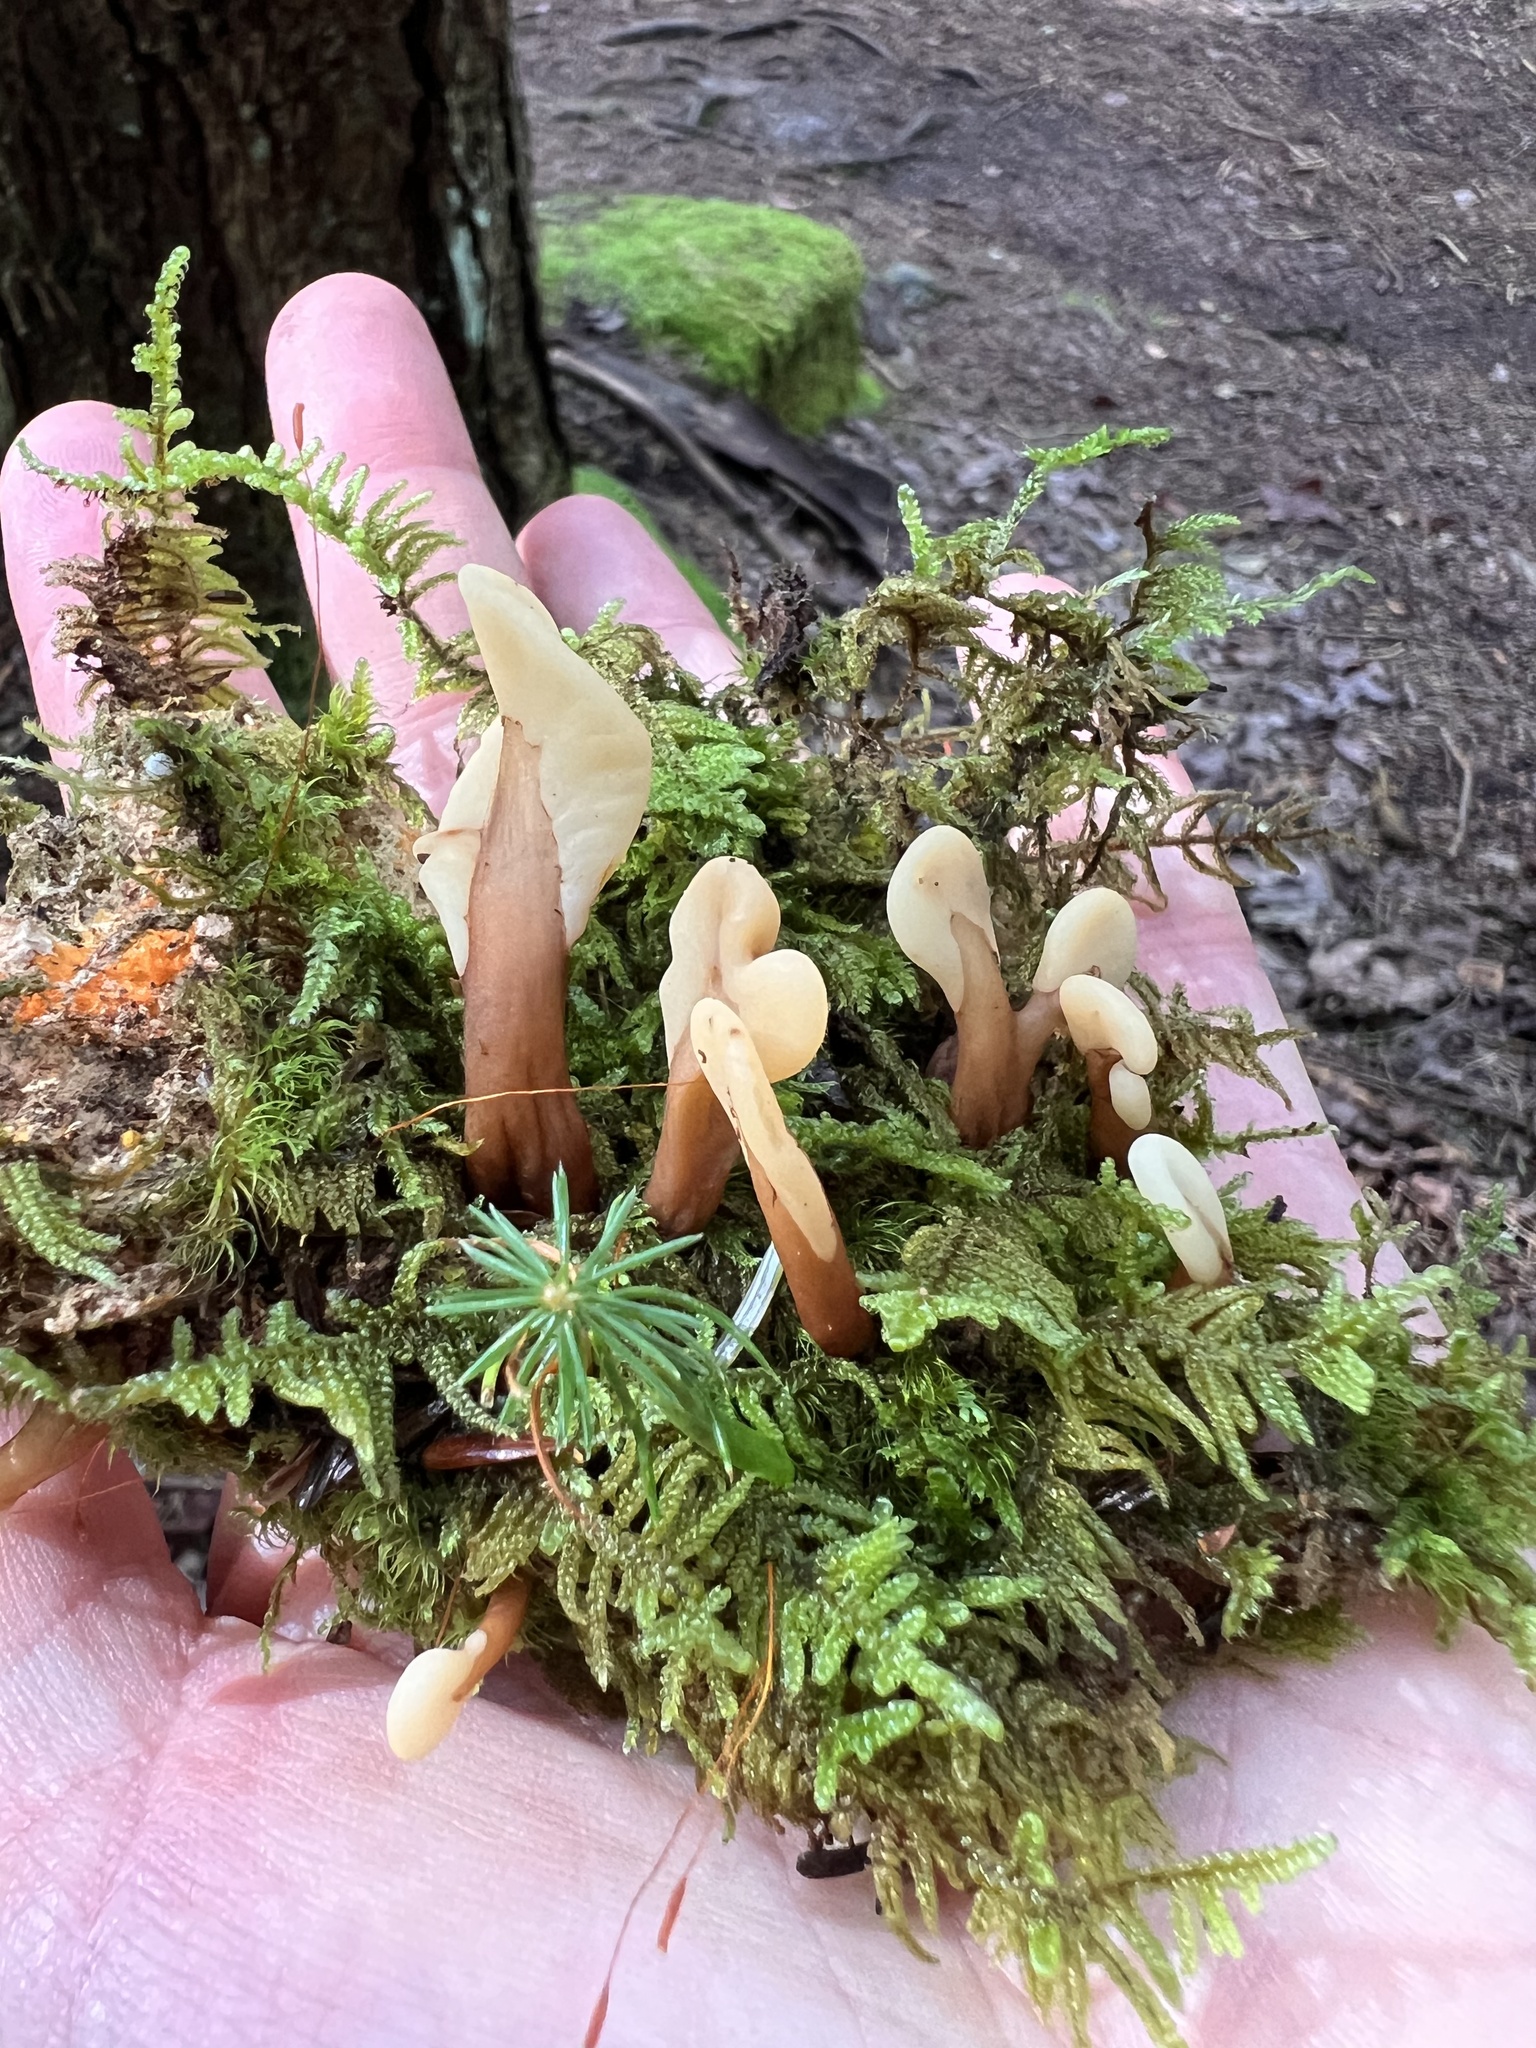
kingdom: Fungi
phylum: Ascomycota
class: Leotiomycetes
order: Rhytismatales
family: Cudoniaceae
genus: Spathulariopsis
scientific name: Spathulariopsis velutipes
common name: Velvet-foot fairy fan
